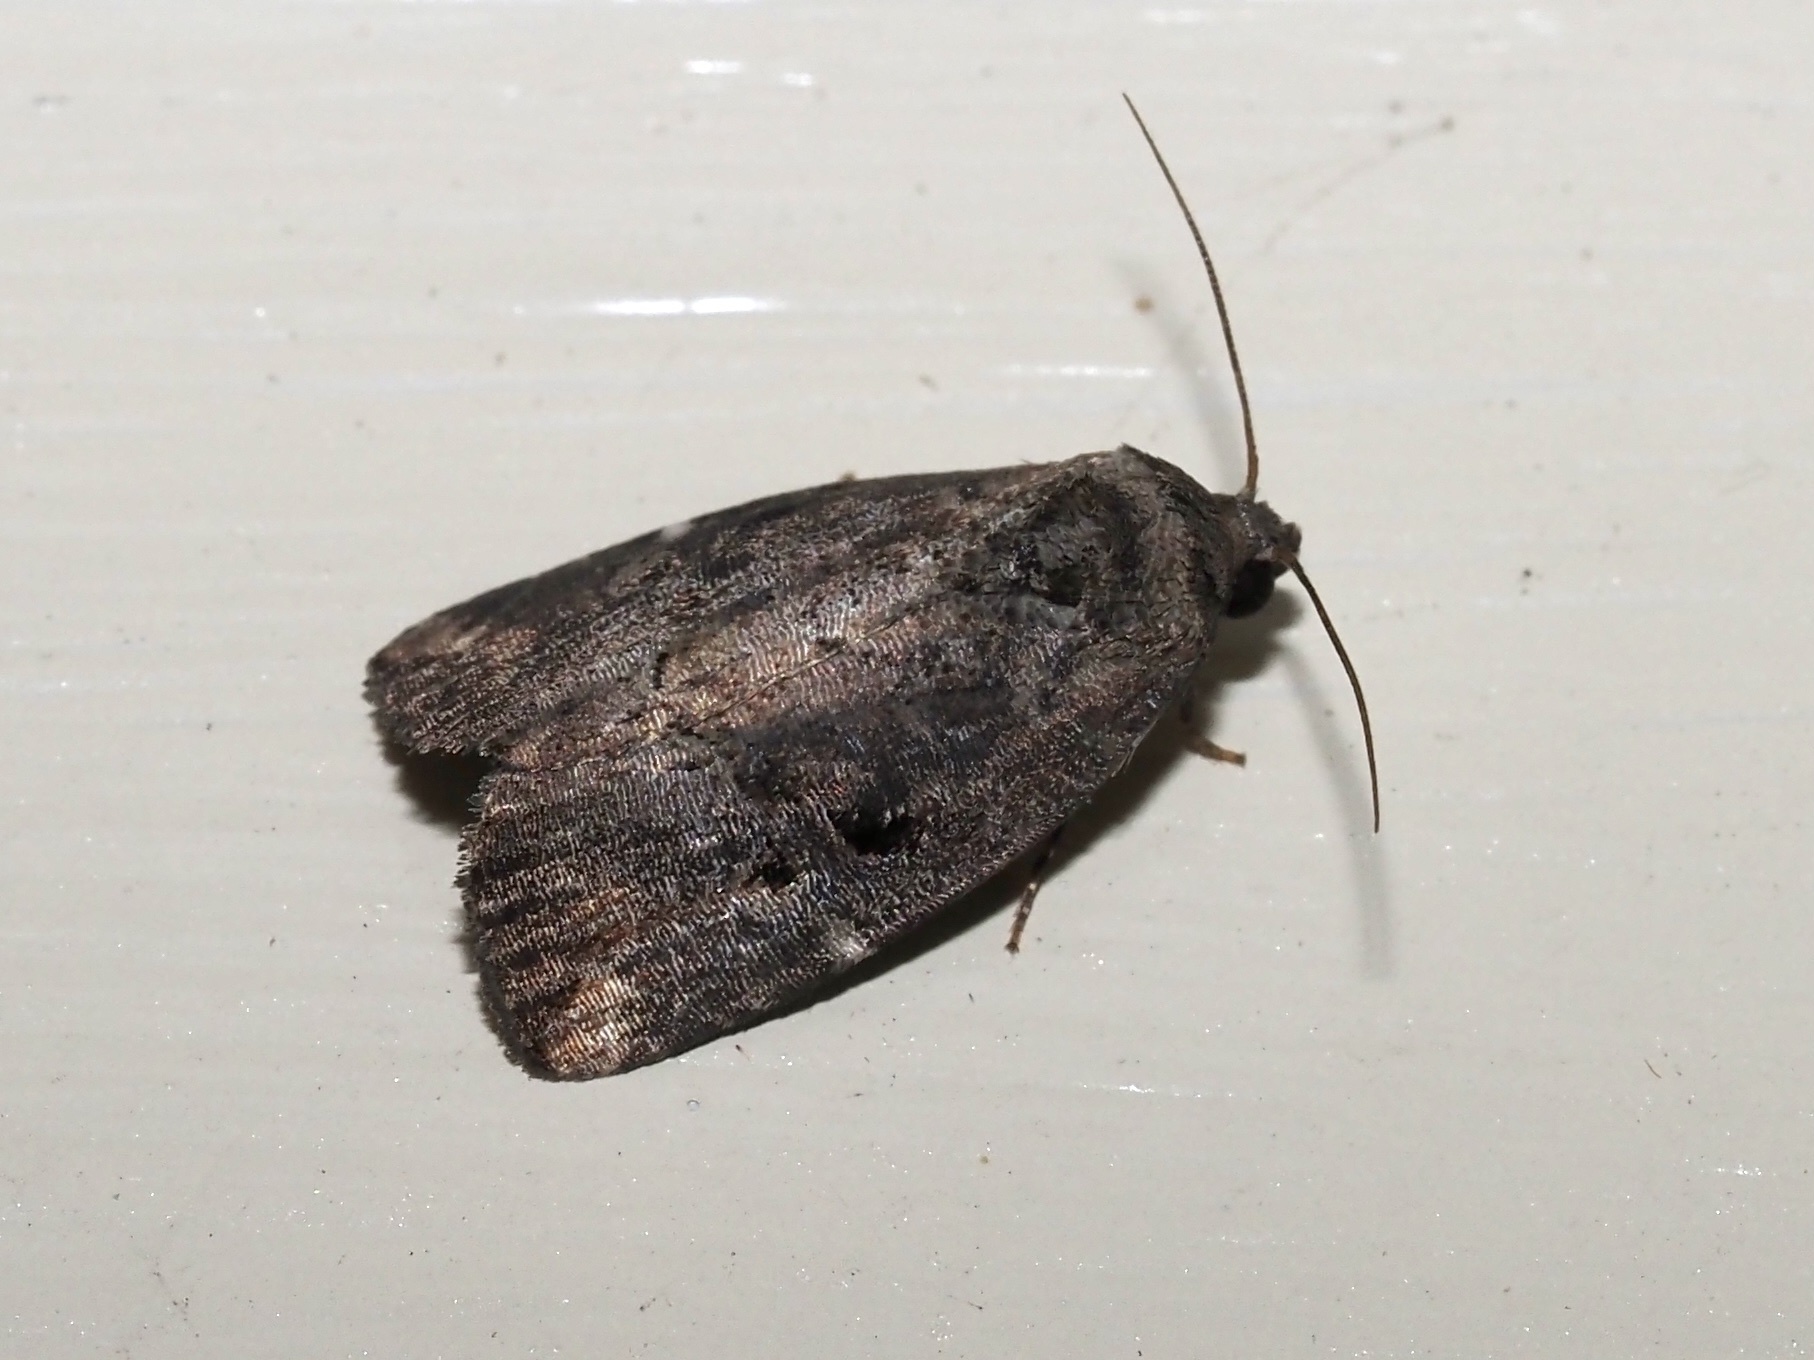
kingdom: Animalia
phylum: Arthropoda
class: Insecta
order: Lepidoptera
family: Noctuidae
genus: Elaphria
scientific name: Elaphria versicolor
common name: Fir harlequin
